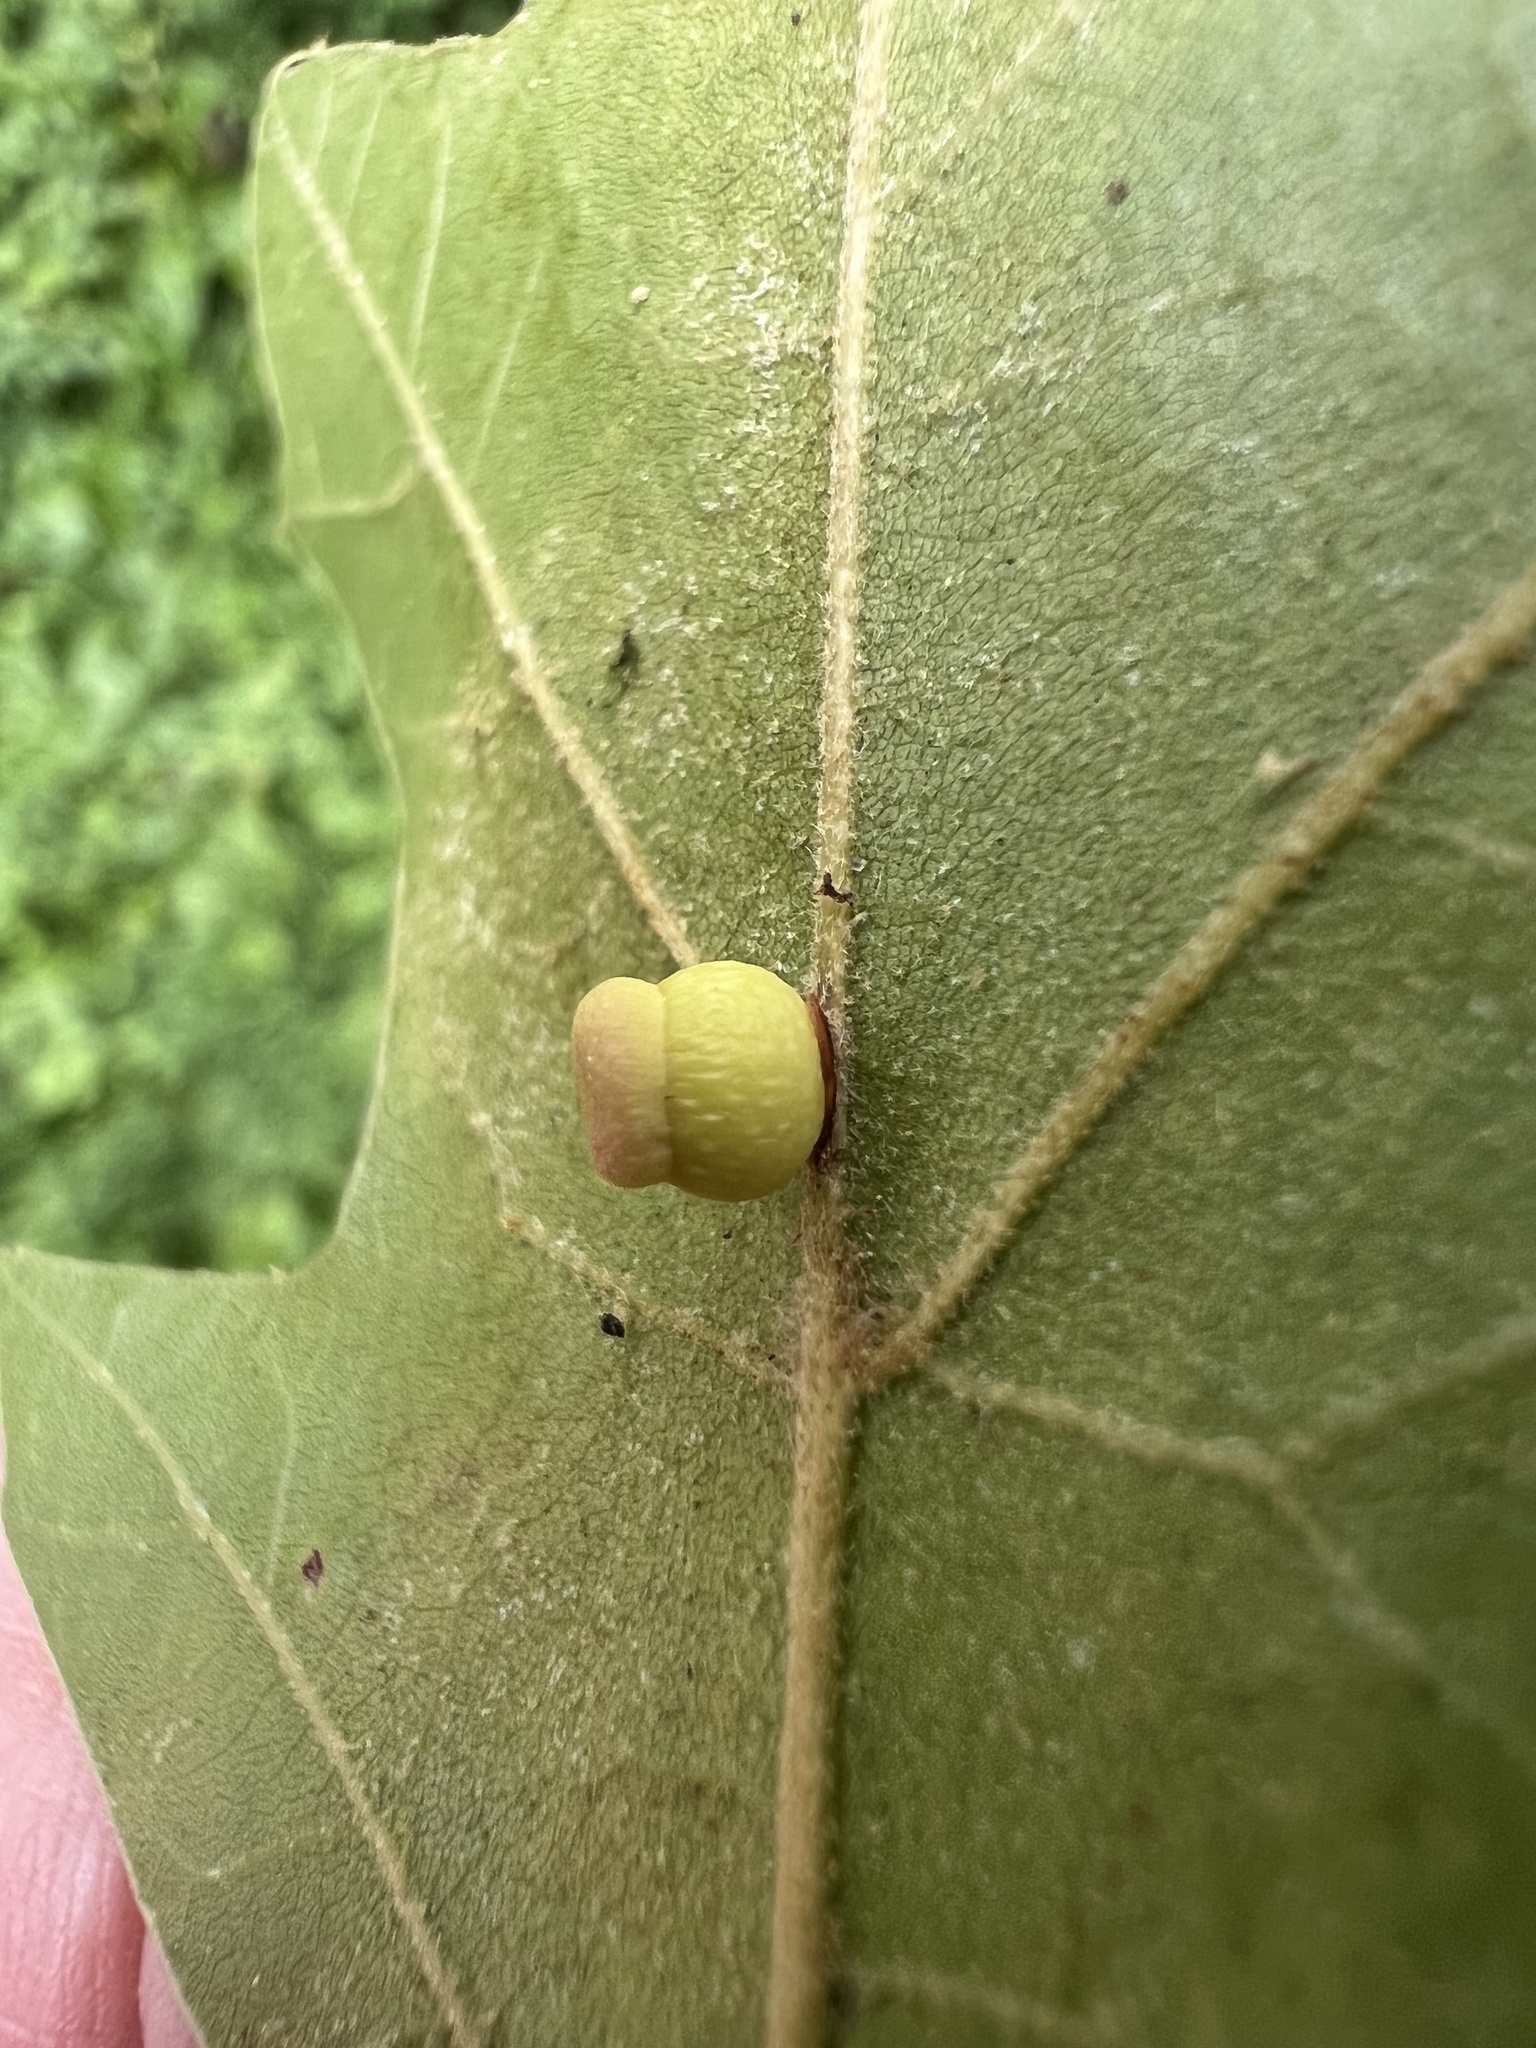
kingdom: Animalia
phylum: Arthropoda
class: Insecta
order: Hymenoptera
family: Cynipidae
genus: Kokkocynips
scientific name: Kokkocynips rileyi
